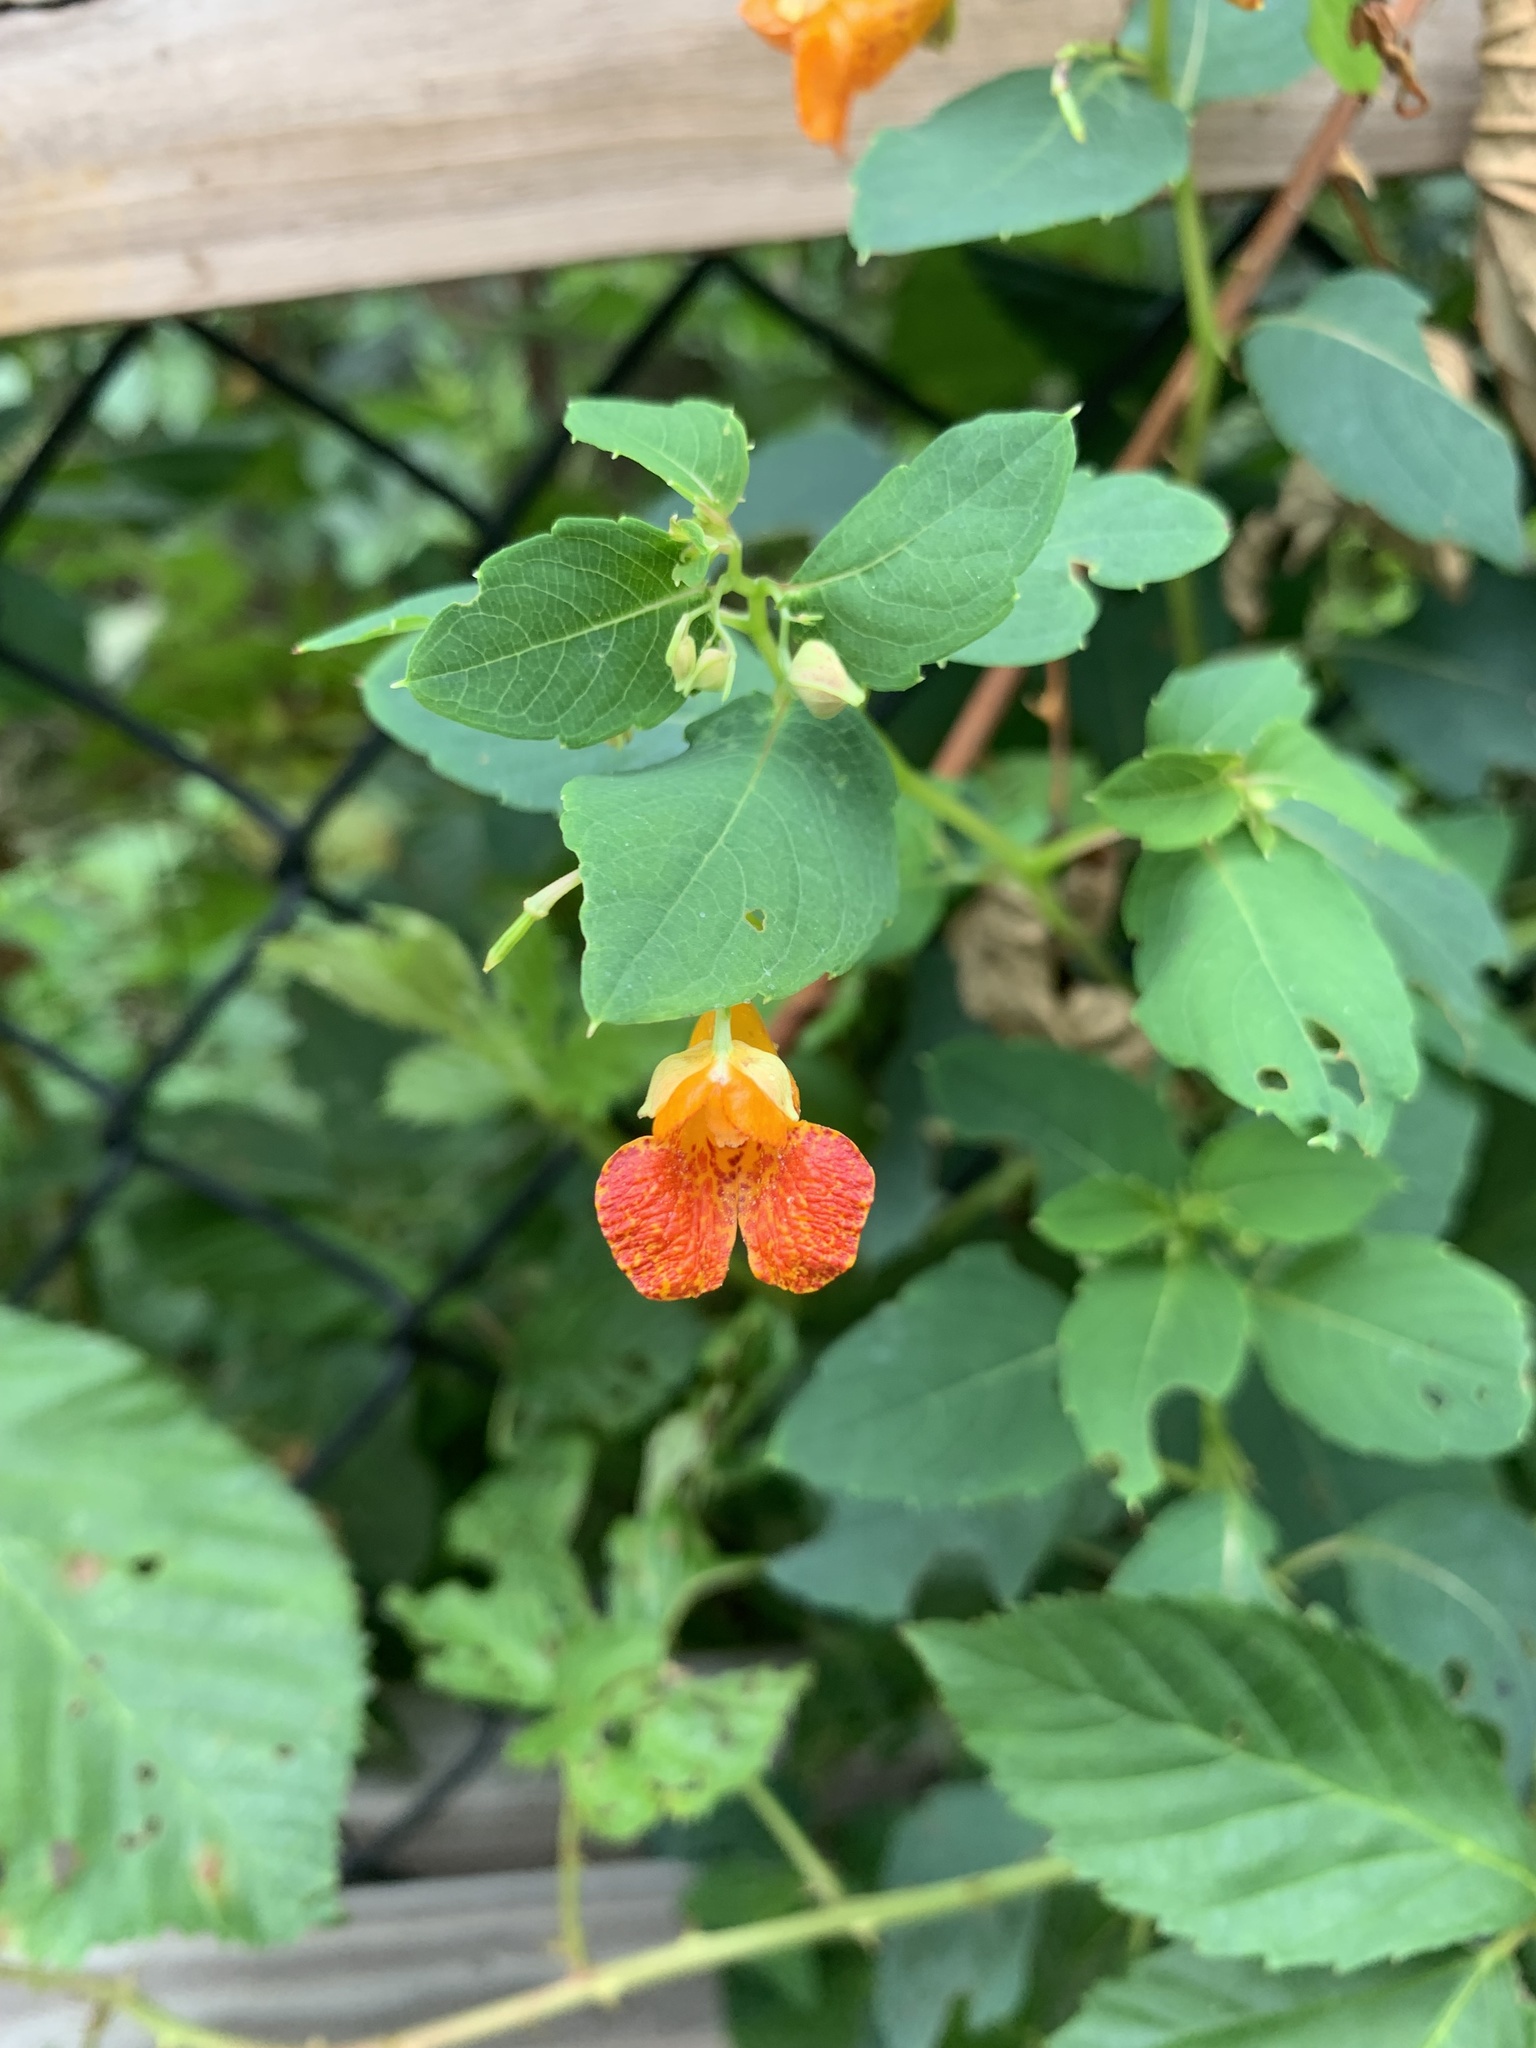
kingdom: Plantae
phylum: Tracheophyta
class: Magnoliopsida
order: Ericales
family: Balsaminaceae
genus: Impatiens
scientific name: Impatiens capensis
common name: Orange balsam
